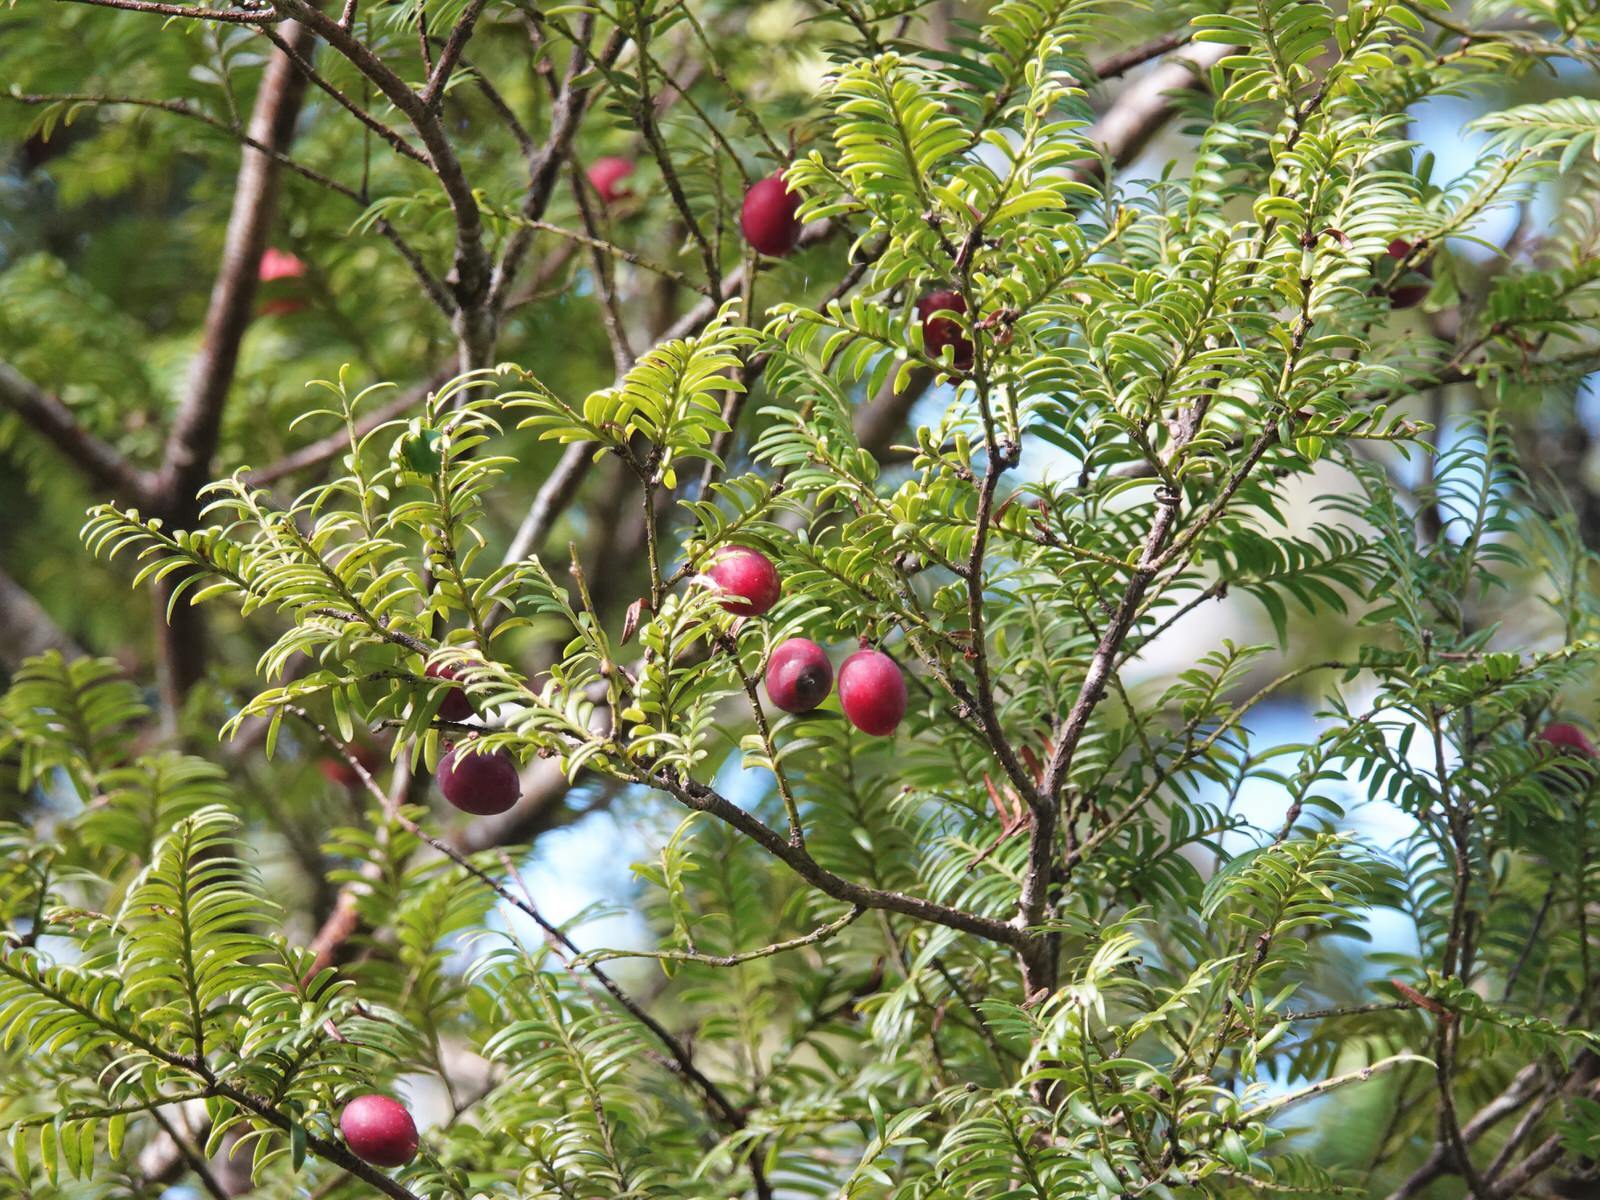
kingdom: Plantae
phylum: Tracheophyta
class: Pinopsida
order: Pinales
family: Podocarpaceae
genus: Prumnopitys
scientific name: Prumnopitys ferruginea
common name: Brown pine
